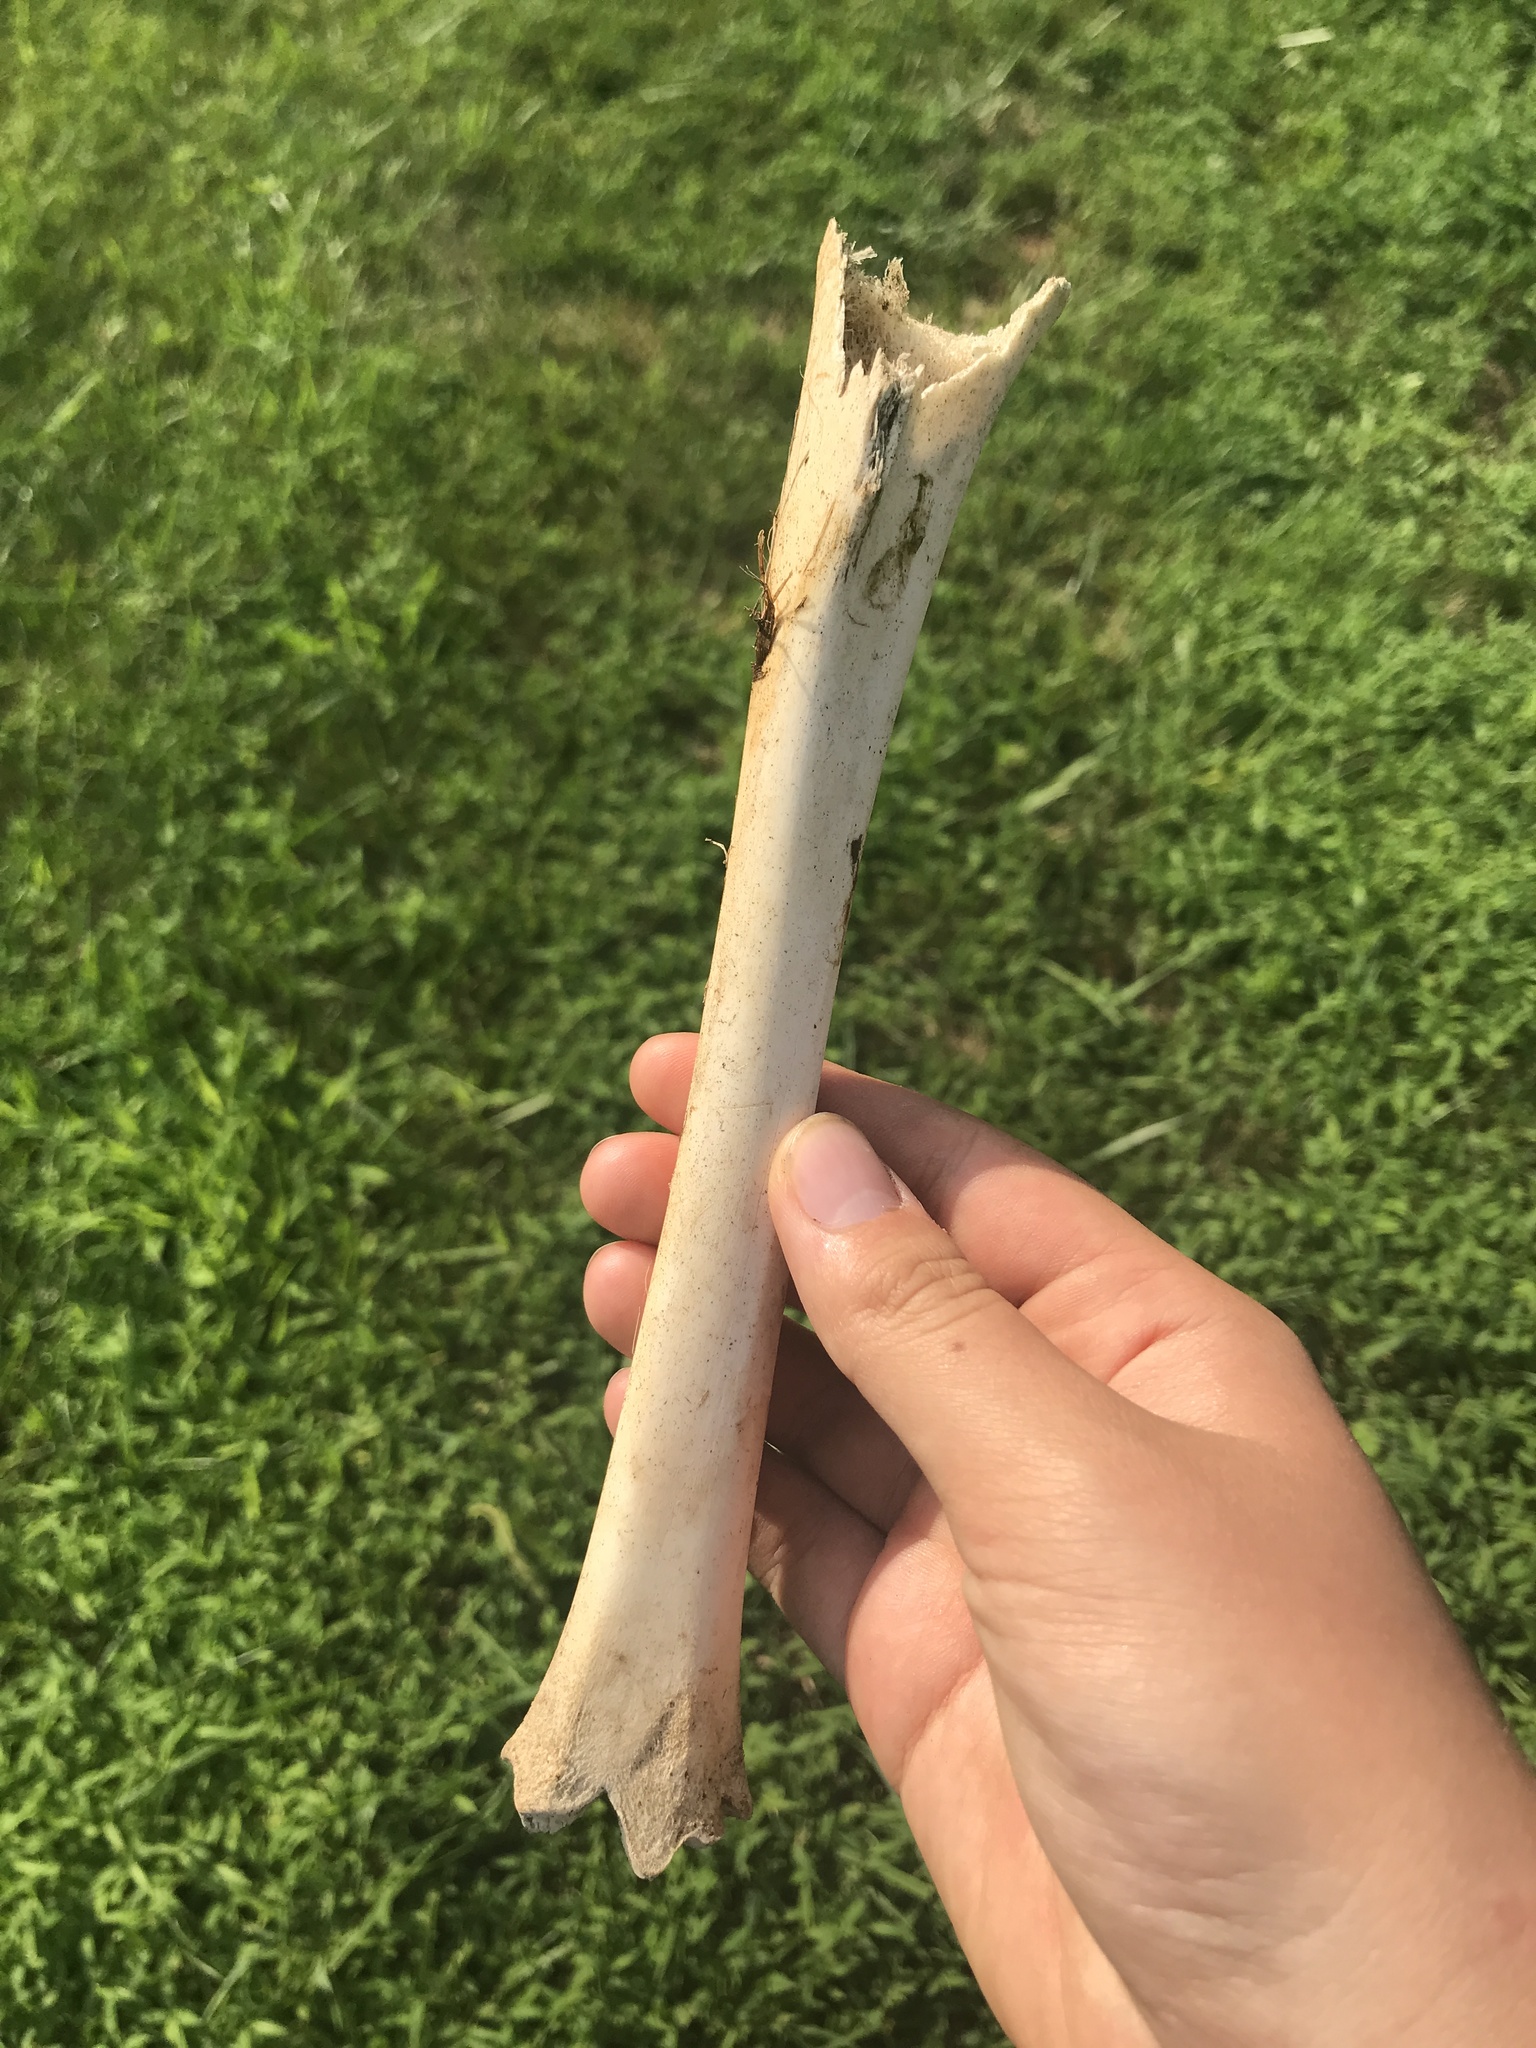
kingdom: Animalia
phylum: Chordata
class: Mammalia
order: Artiodactyla
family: Cervidae
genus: Odocoileus
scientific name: Odocoileus virginianus
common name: White-tailed deer
